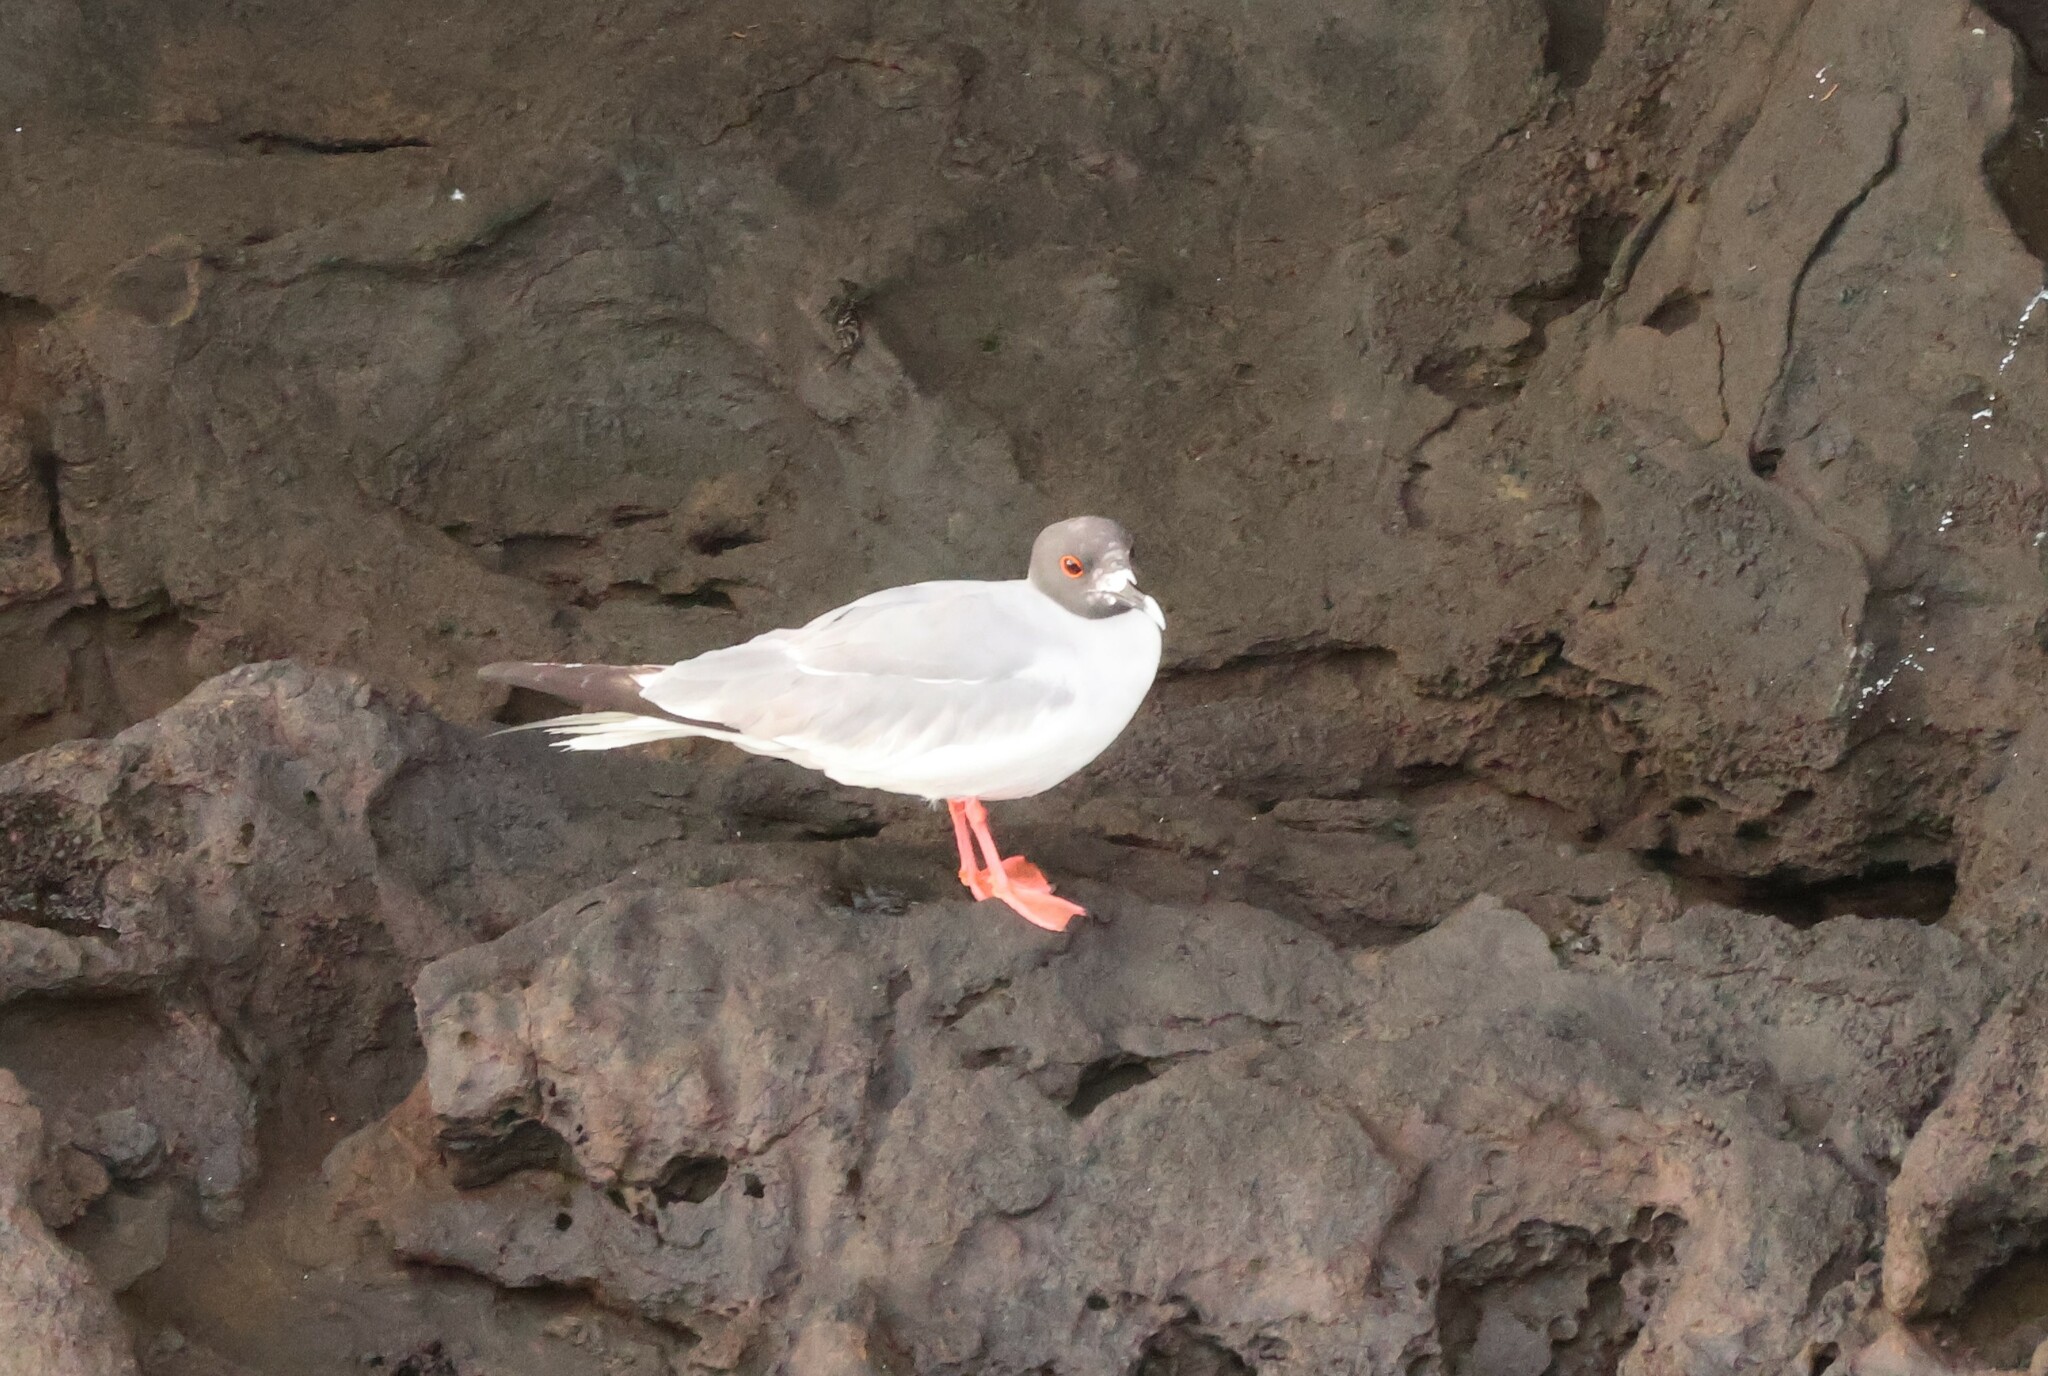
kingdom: Animalia
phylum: Chordata
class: Aves
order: Charadriiformes
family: Laridae
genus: Creagrus
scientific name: Creagrus furcatus
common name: Swallow-tailed gull
